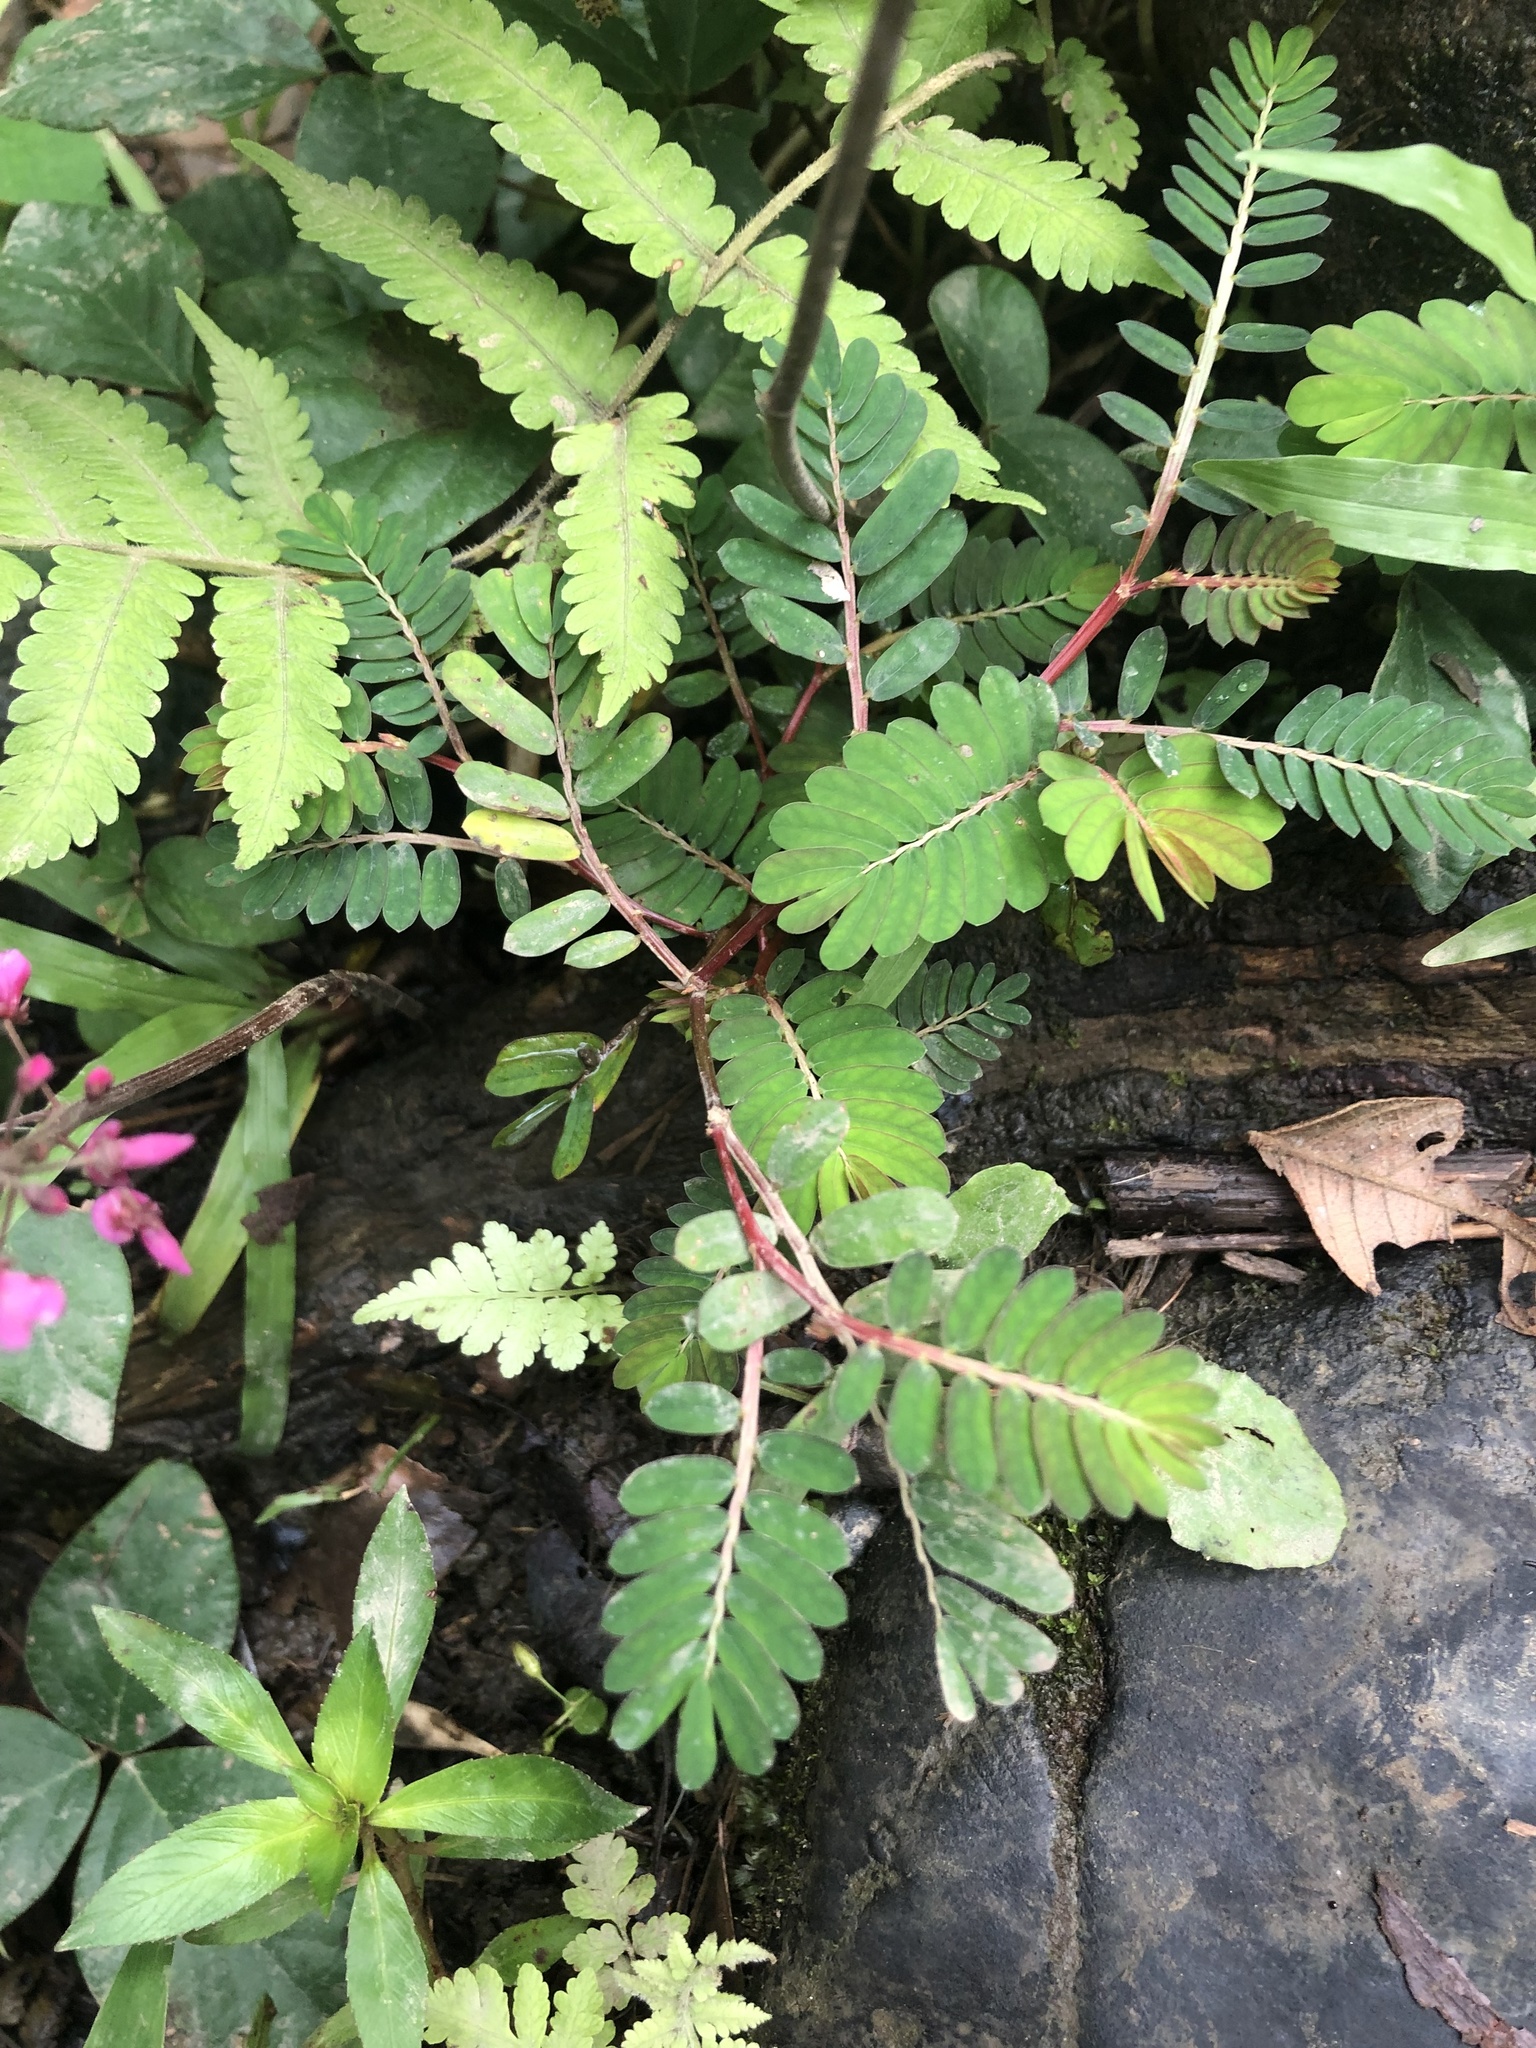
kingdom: Plantae
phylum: Tracheophyta
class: Magnoliopsida
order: Malpighiales
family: Phyllanthaceae
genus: Phyllanthus
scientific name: Phyllanthus urinaria
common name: Chamber bitter
